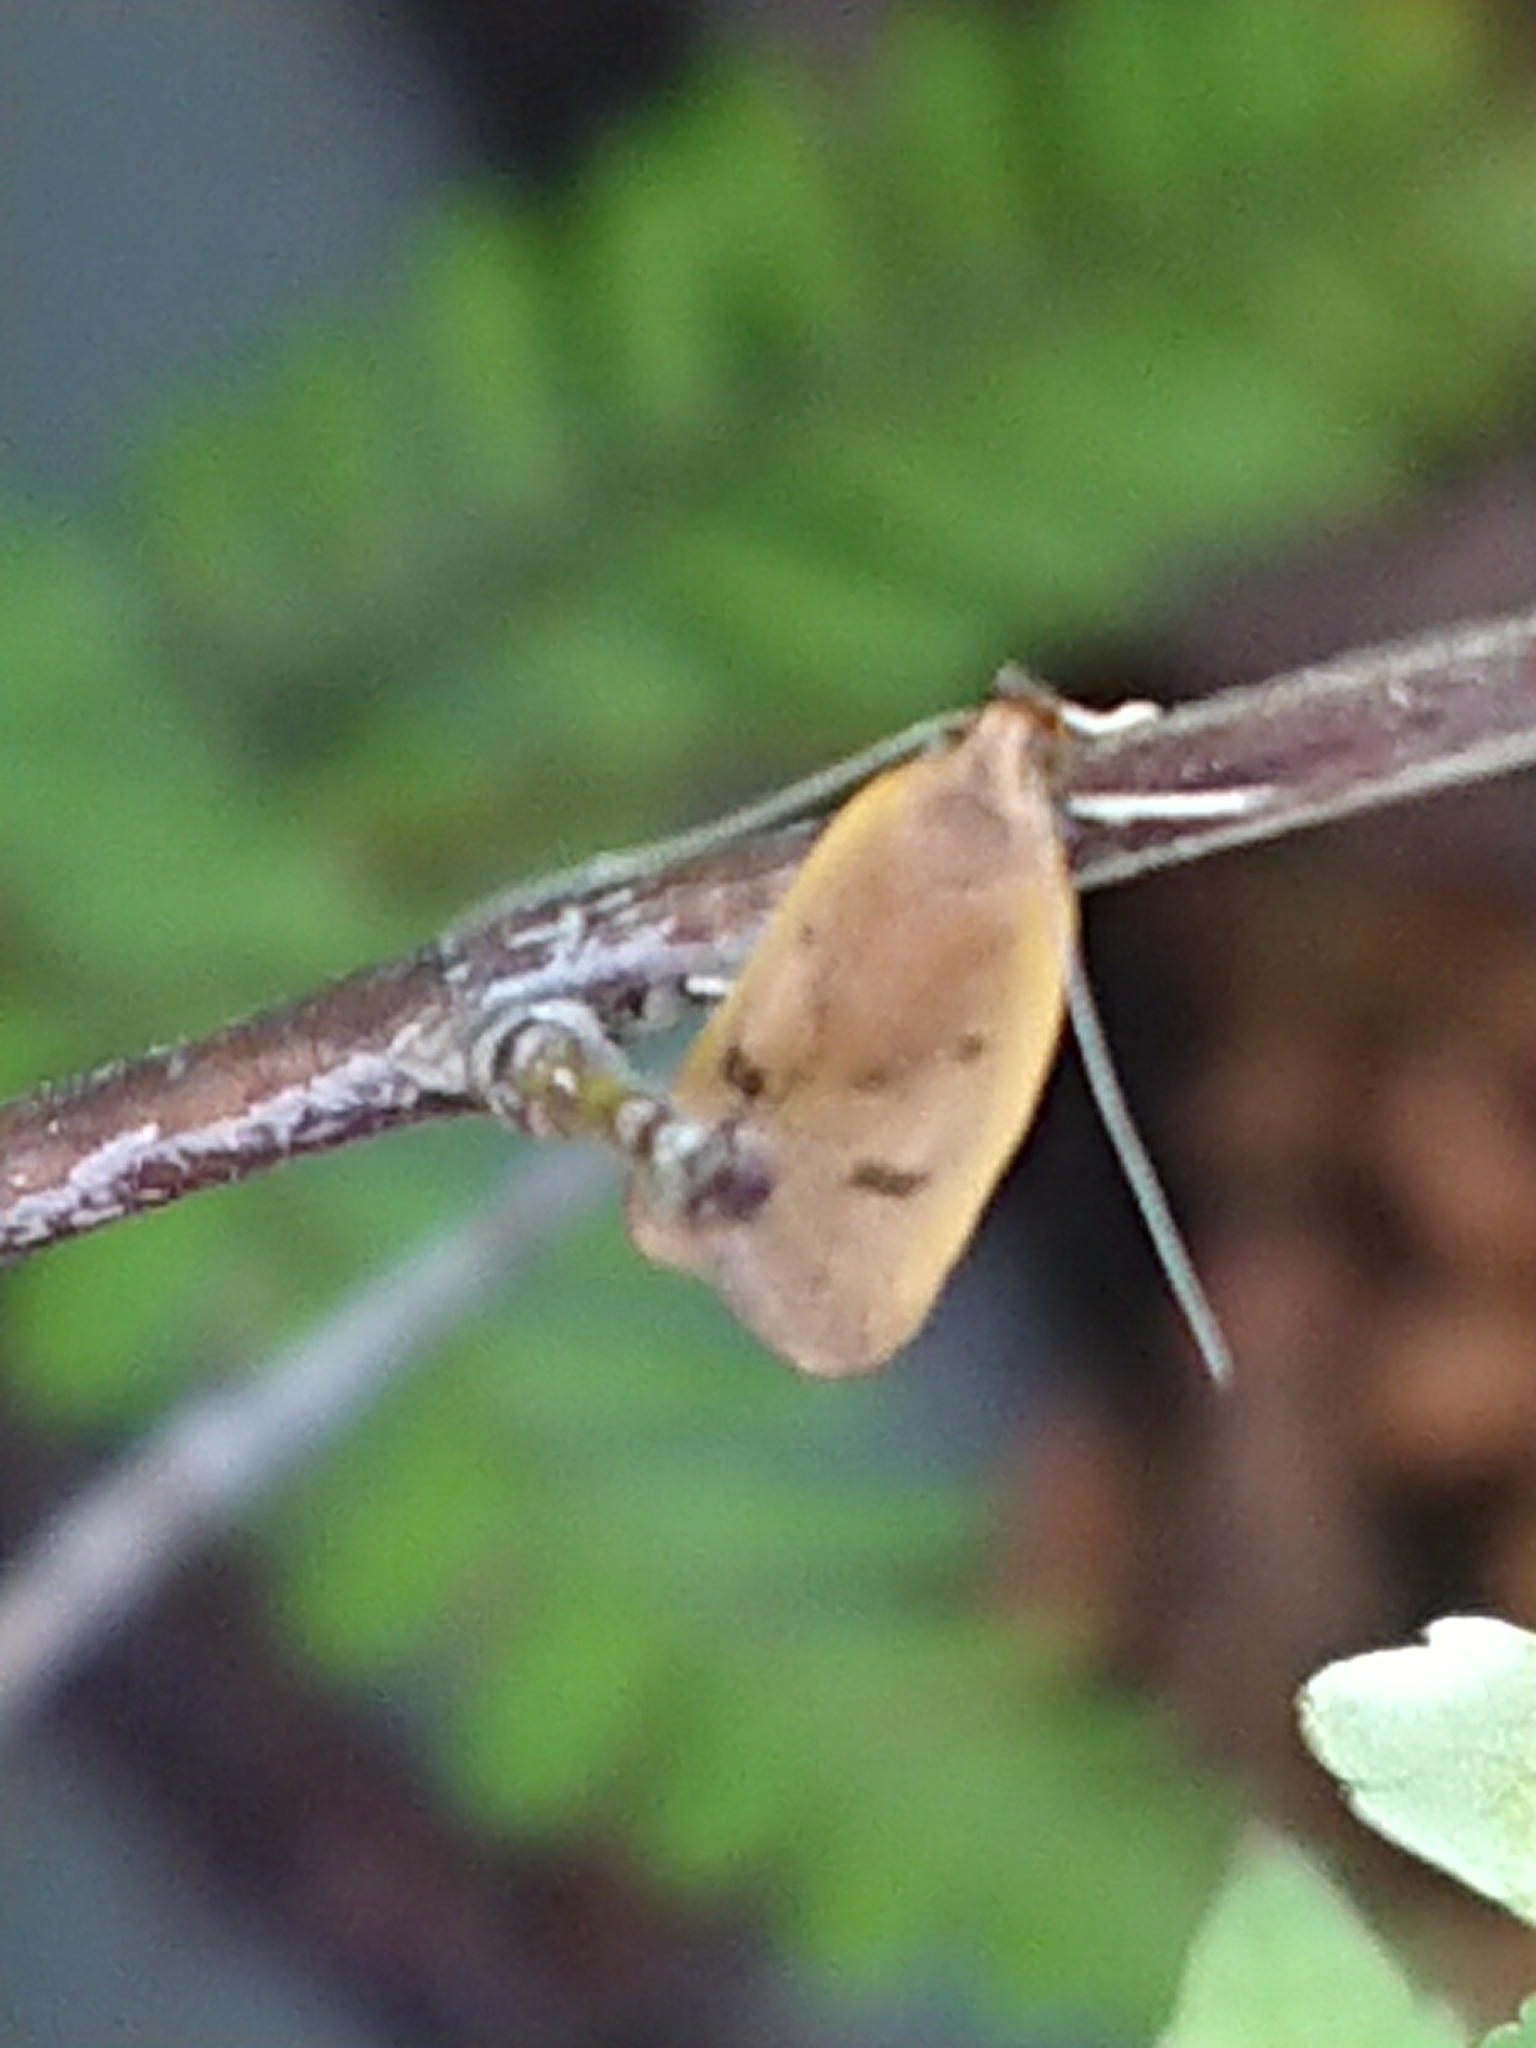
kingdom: Animalia
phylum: Arthropoda
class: Insecta
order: Lepidoptera
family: Depressariidae
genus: Phaeosaces
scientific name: Phaeosaces coarctatella
